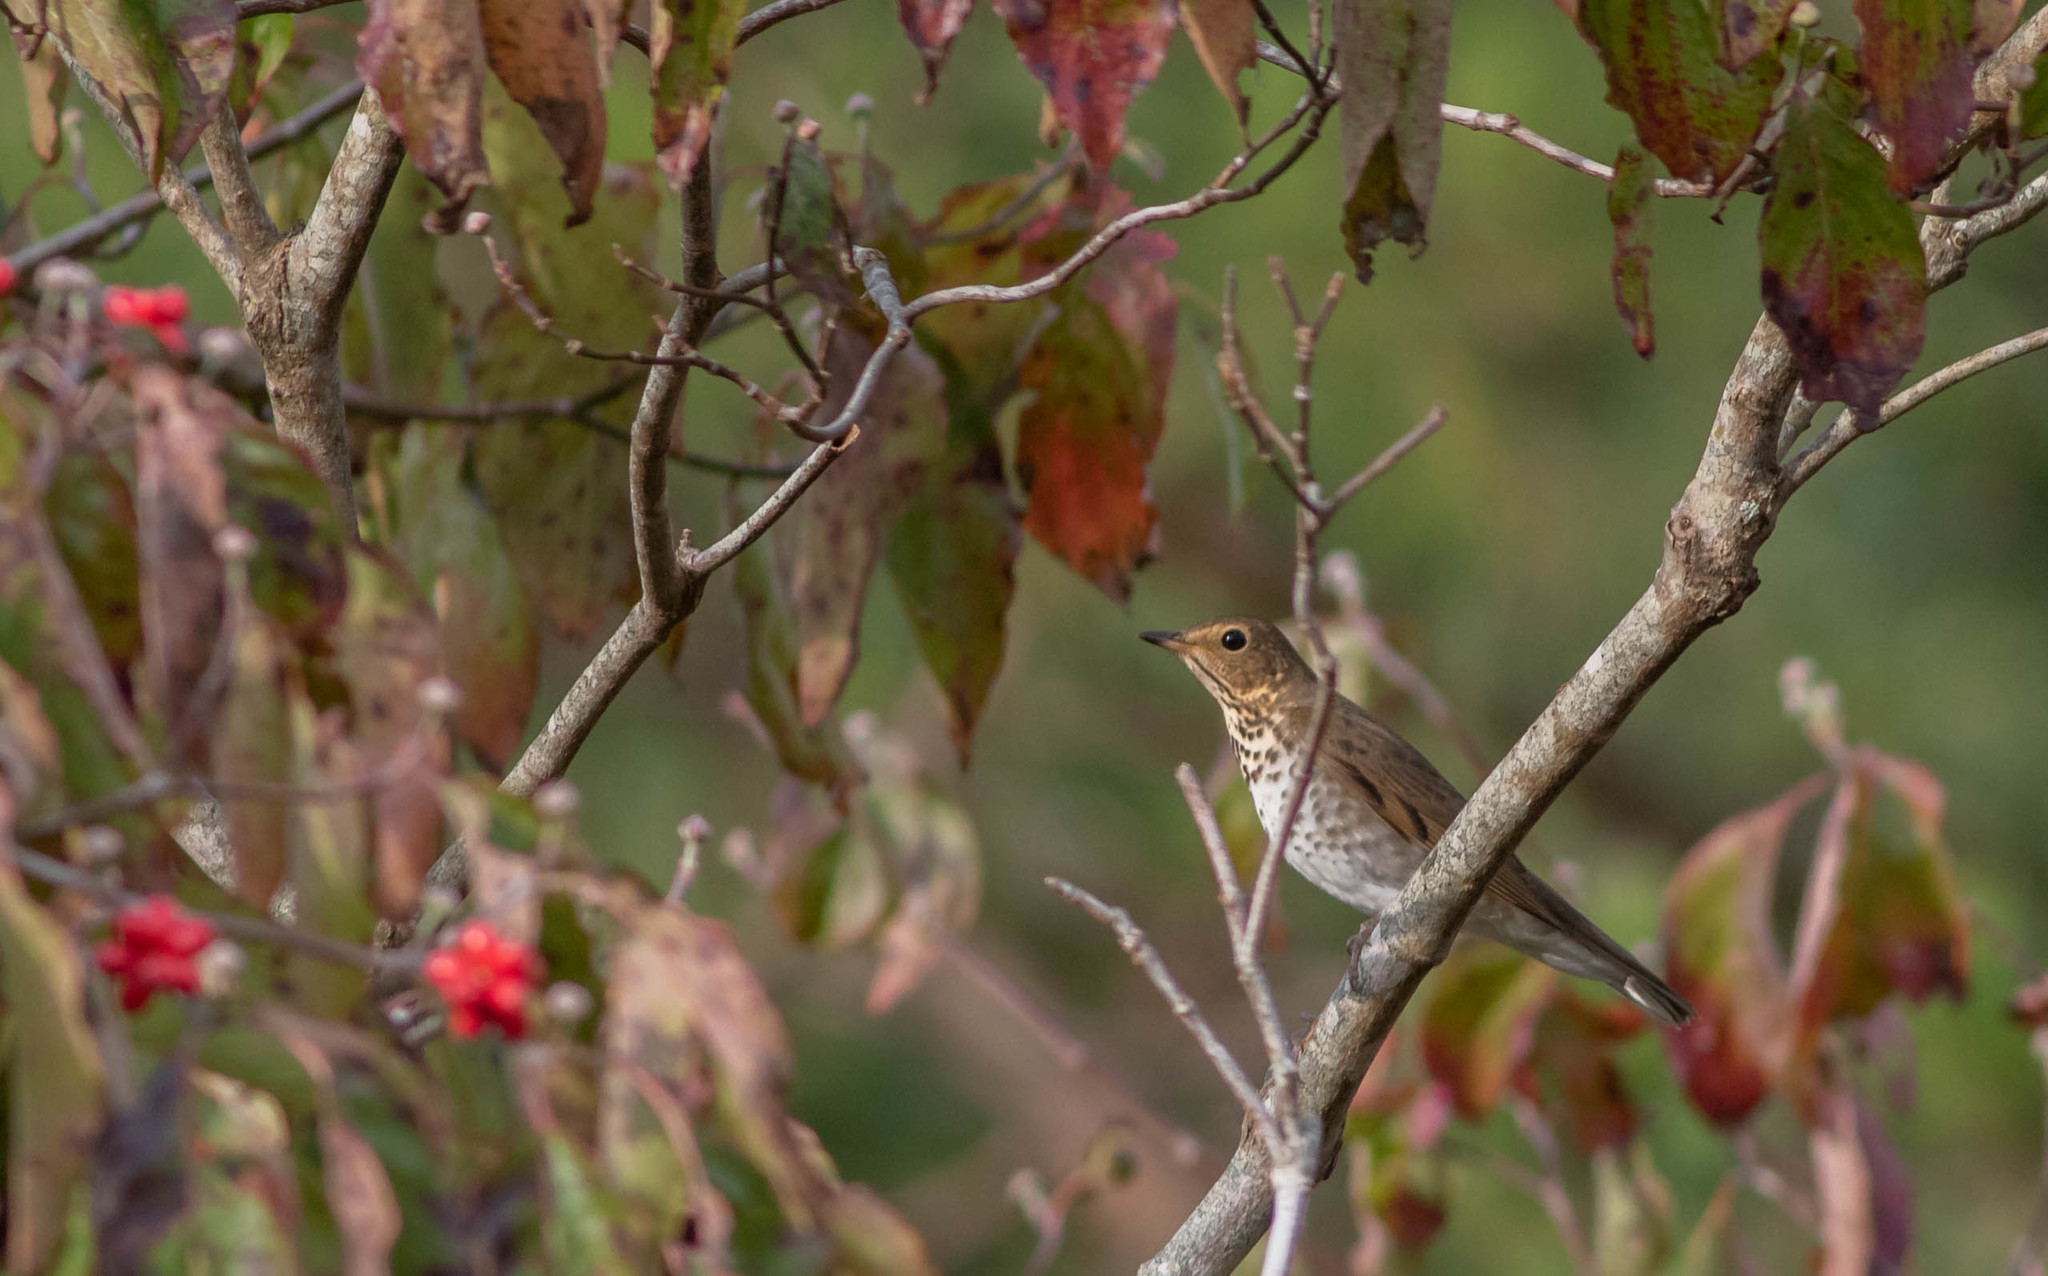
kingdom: Animalia
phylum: Chordata
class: Aves
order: Passeriformes
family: Turdidae
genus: Catharus
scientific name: Catharus ustulatus
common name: Swainson's thrush
